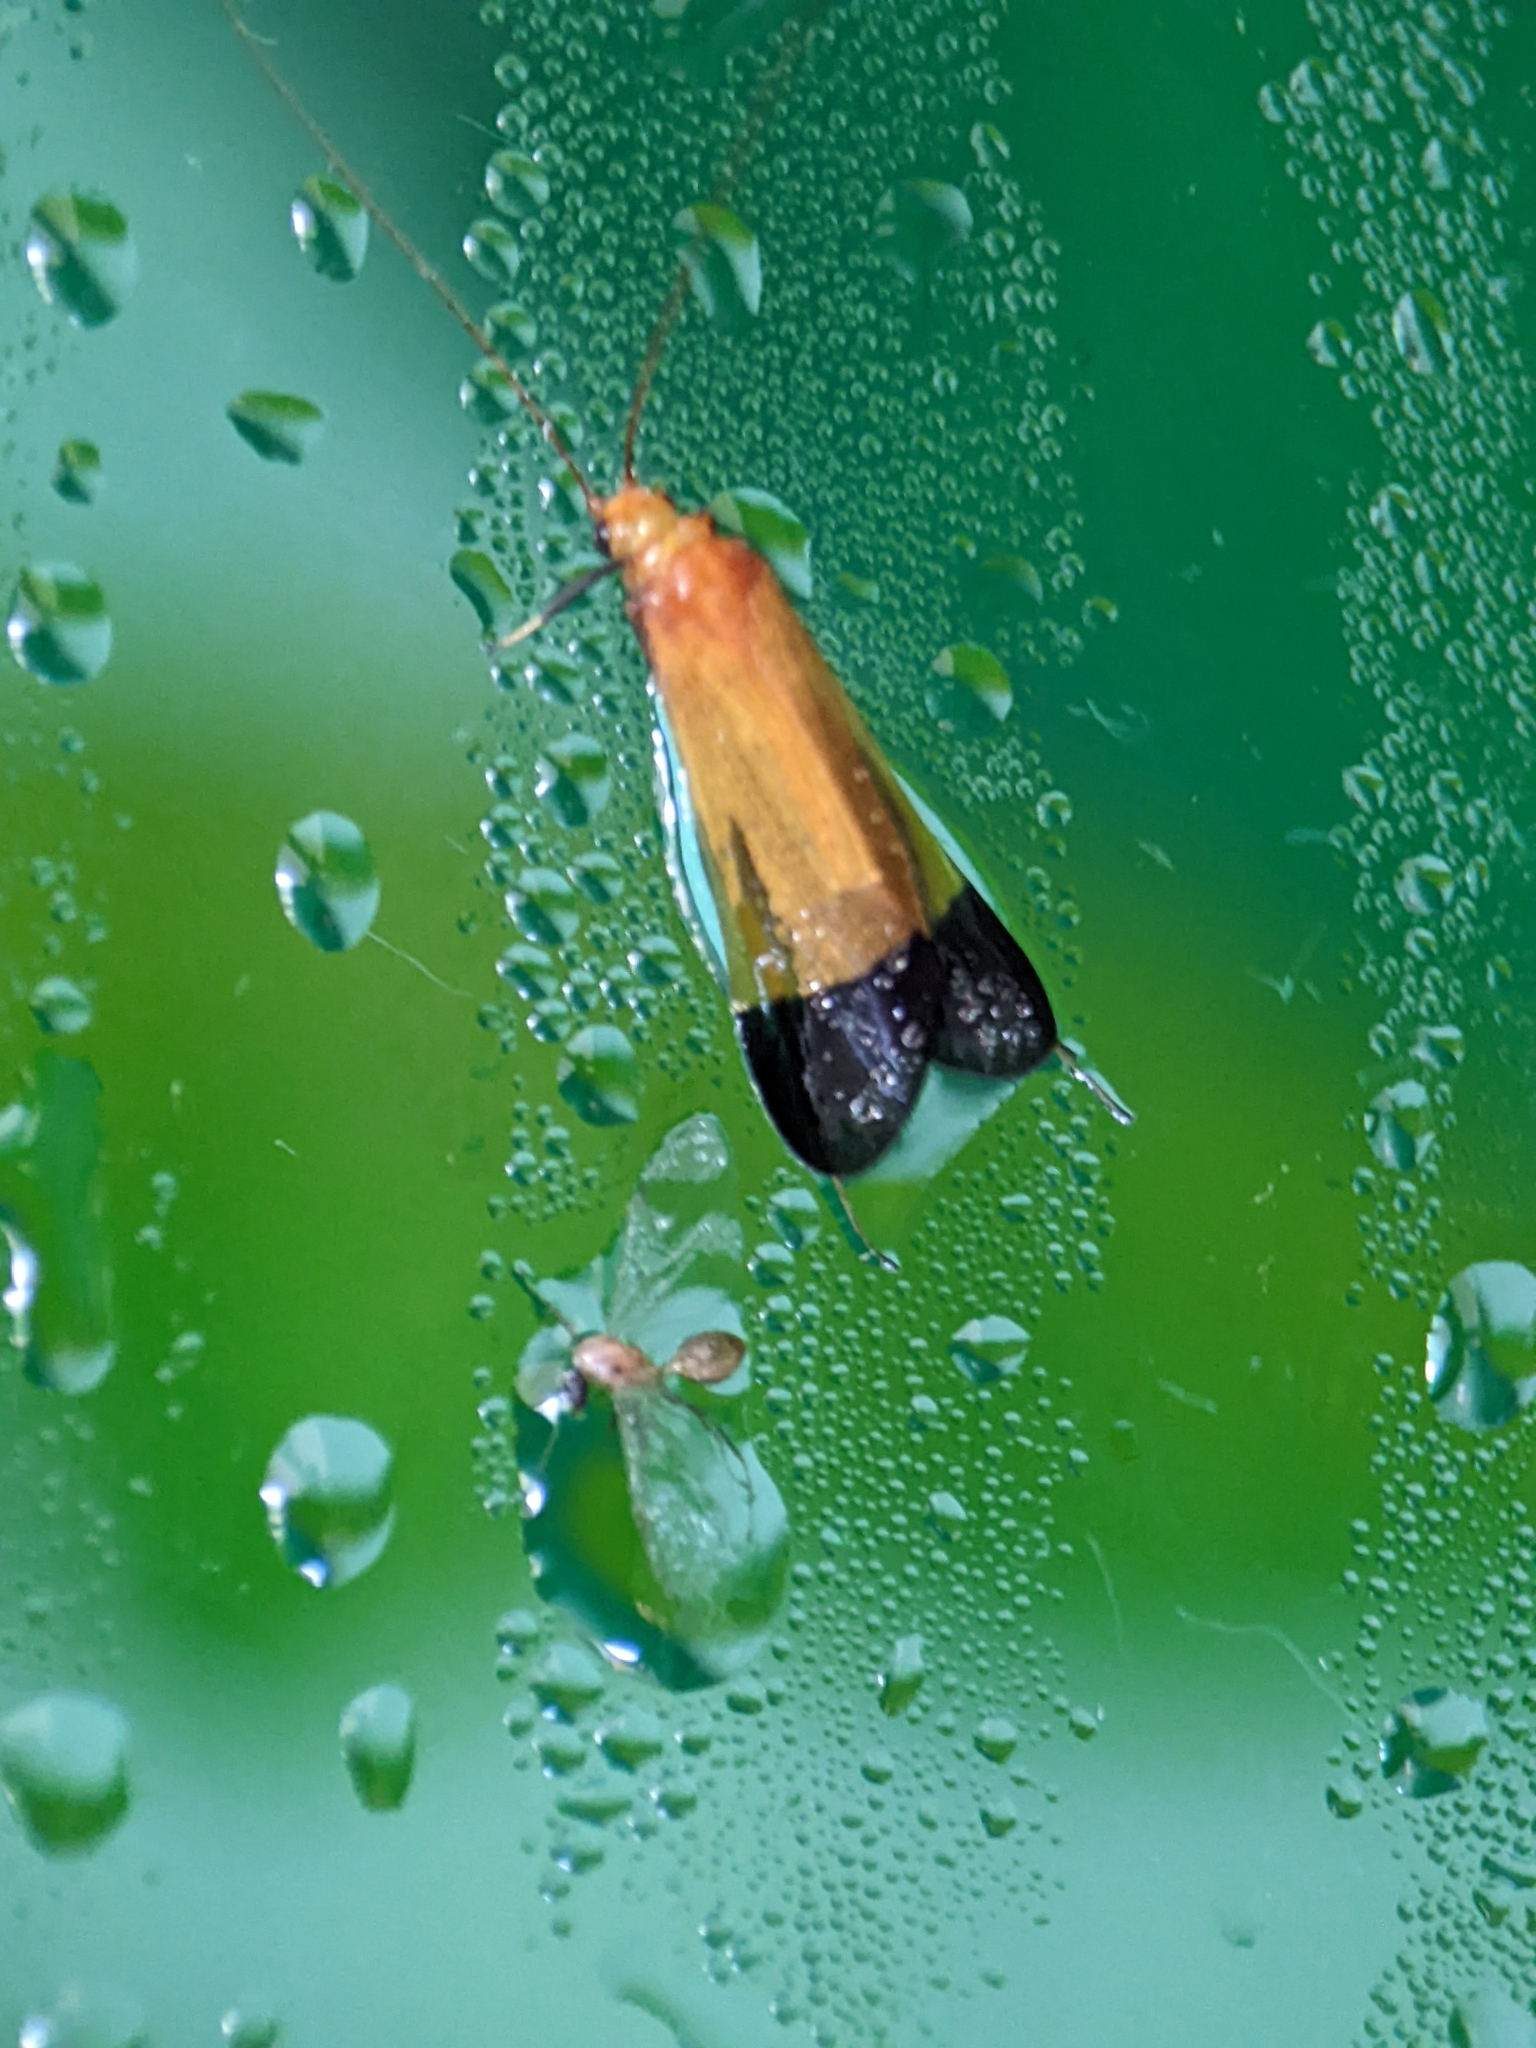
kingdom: Animalia
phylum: Arthropoda
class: Insecta
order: Trichoptera
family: Hydropsychidae
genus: Macrostemum
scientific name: Macrostemum albardanum
